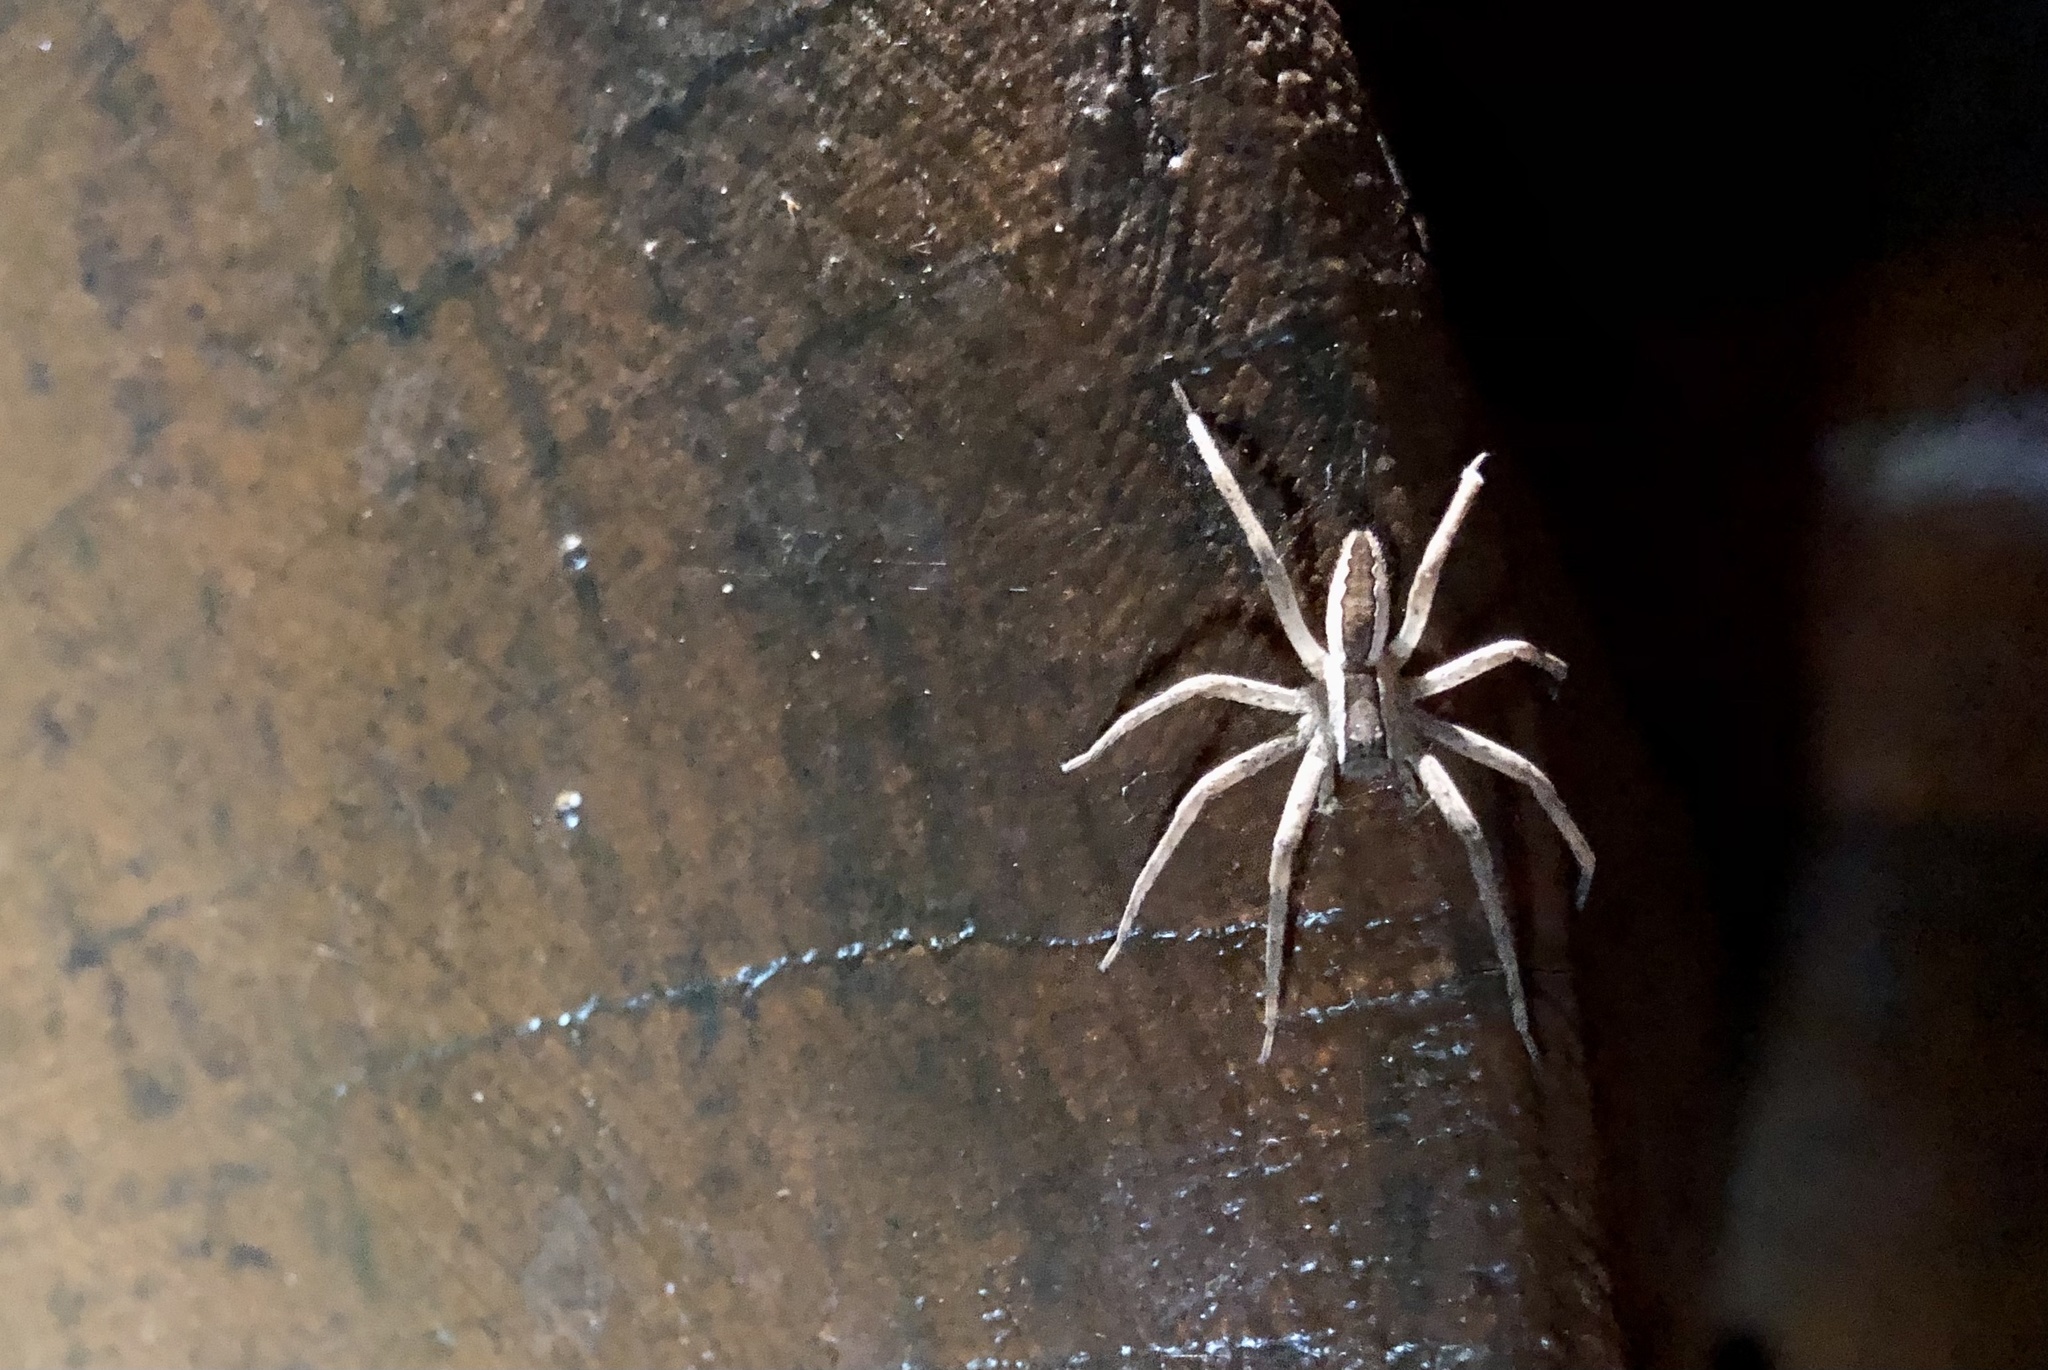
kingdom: Animalia
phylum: Arthropoda
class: Arachnida
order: Araneae
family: Pisauridae
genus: Pisaurina
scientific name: Pisaurina mira
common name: American nursery web spider
